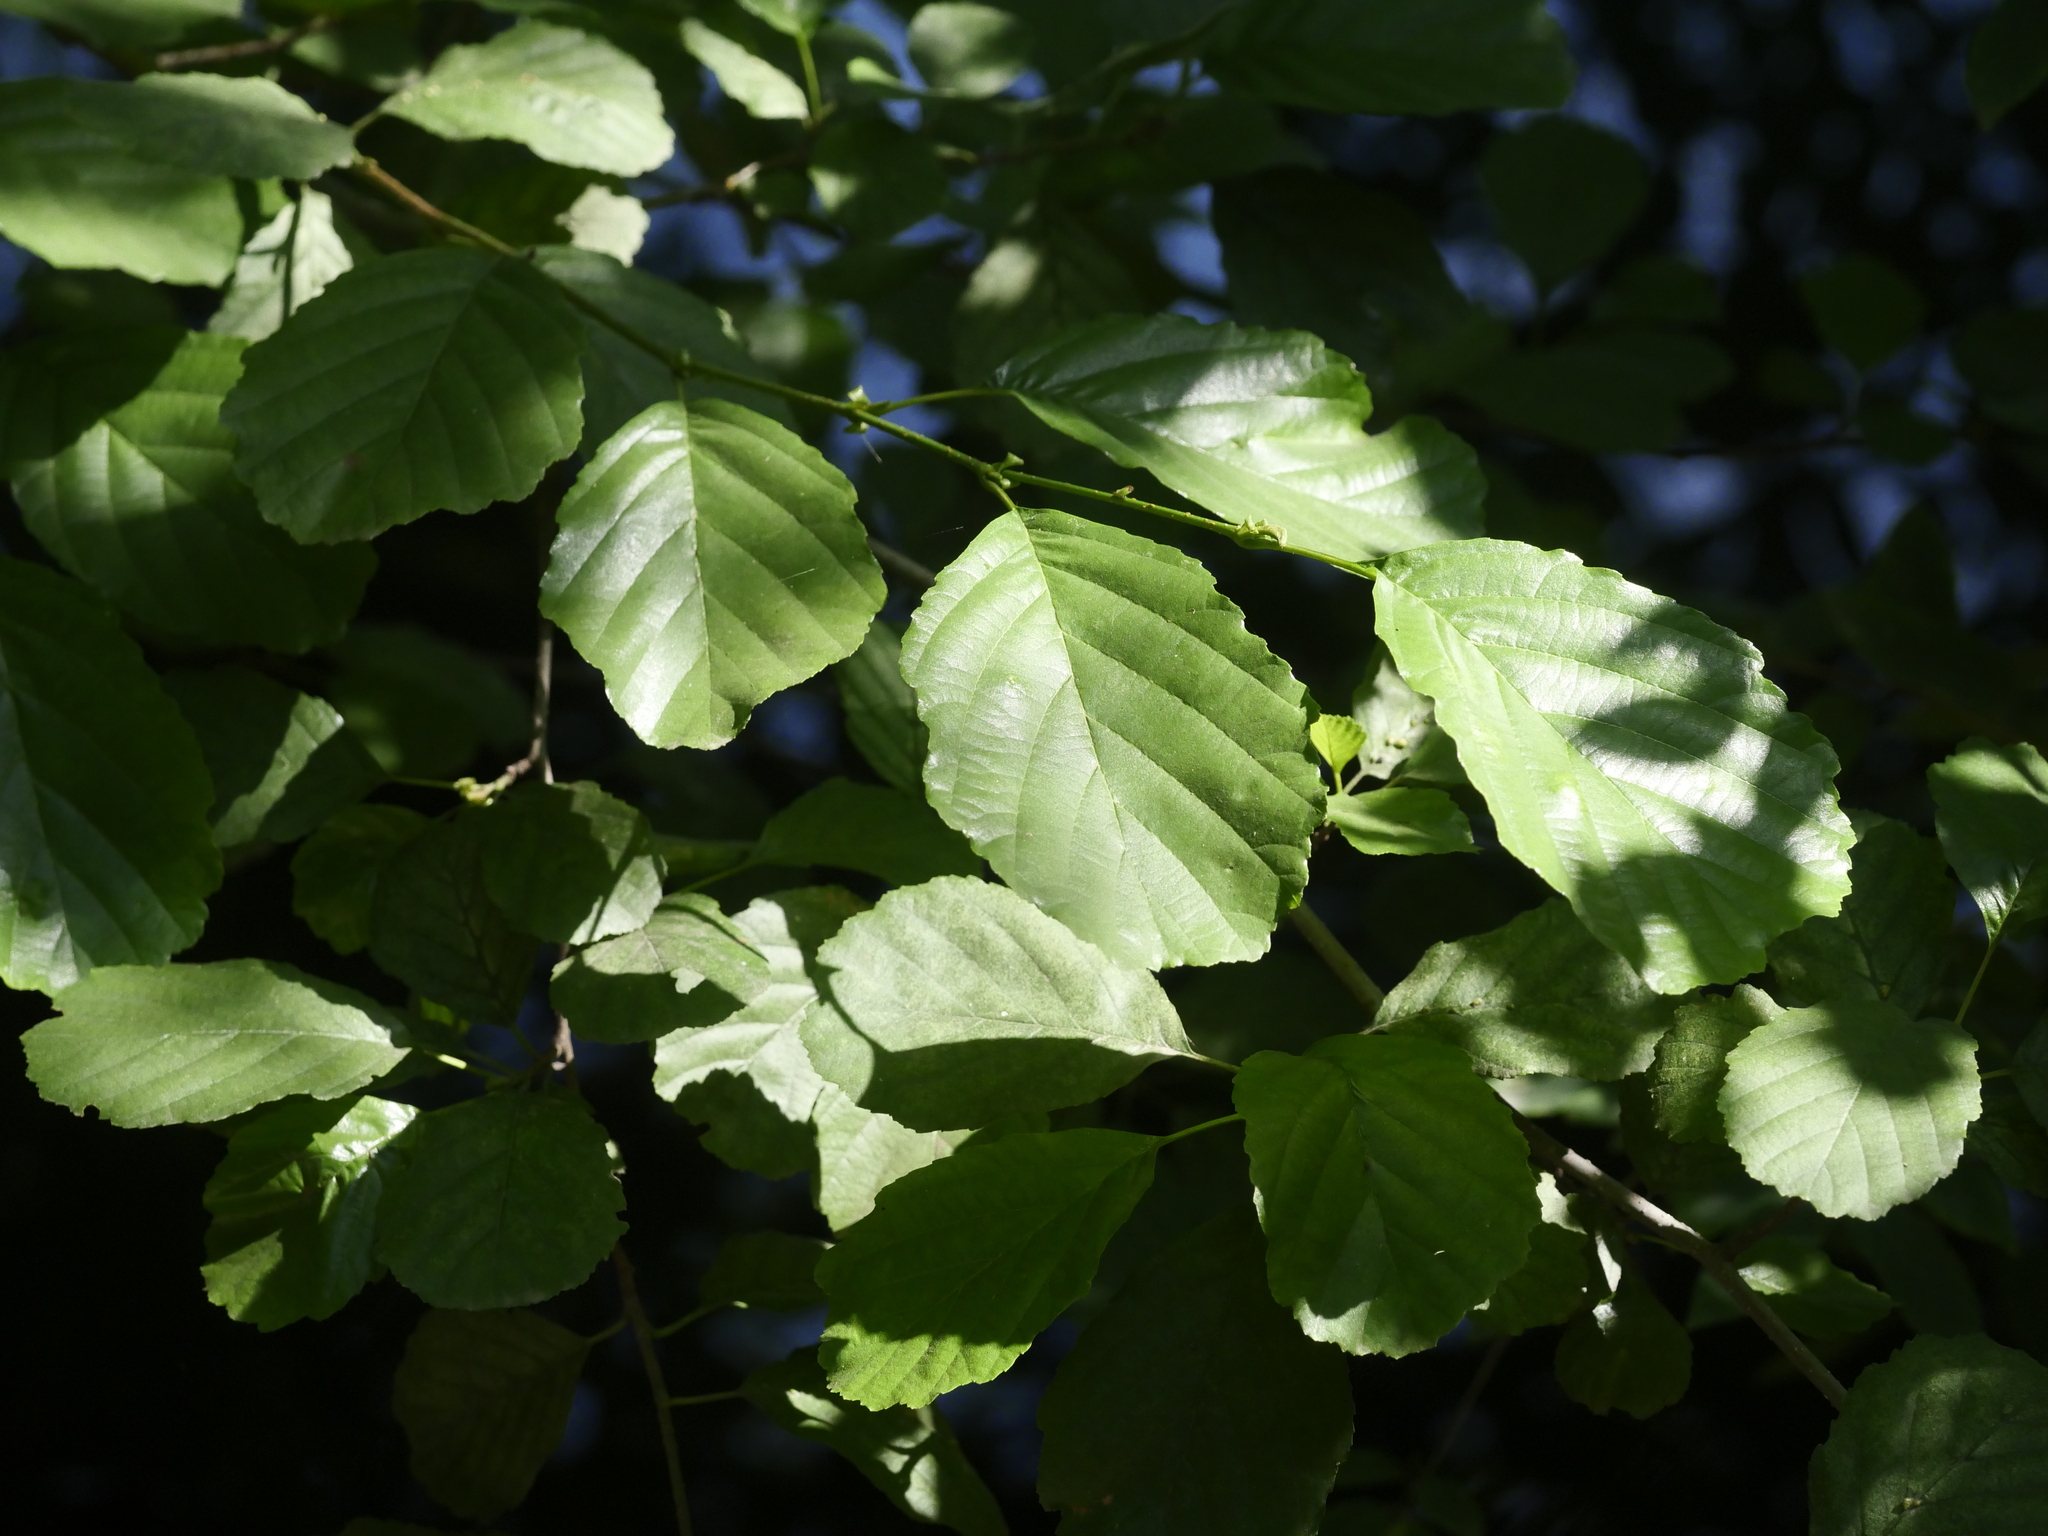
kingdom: Plantae
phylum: Tracheophyta
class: Magnoliopsida
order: Fagales
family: Betulaceae
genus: Alnus
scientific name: Alnus glutinosa
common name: Black alder
